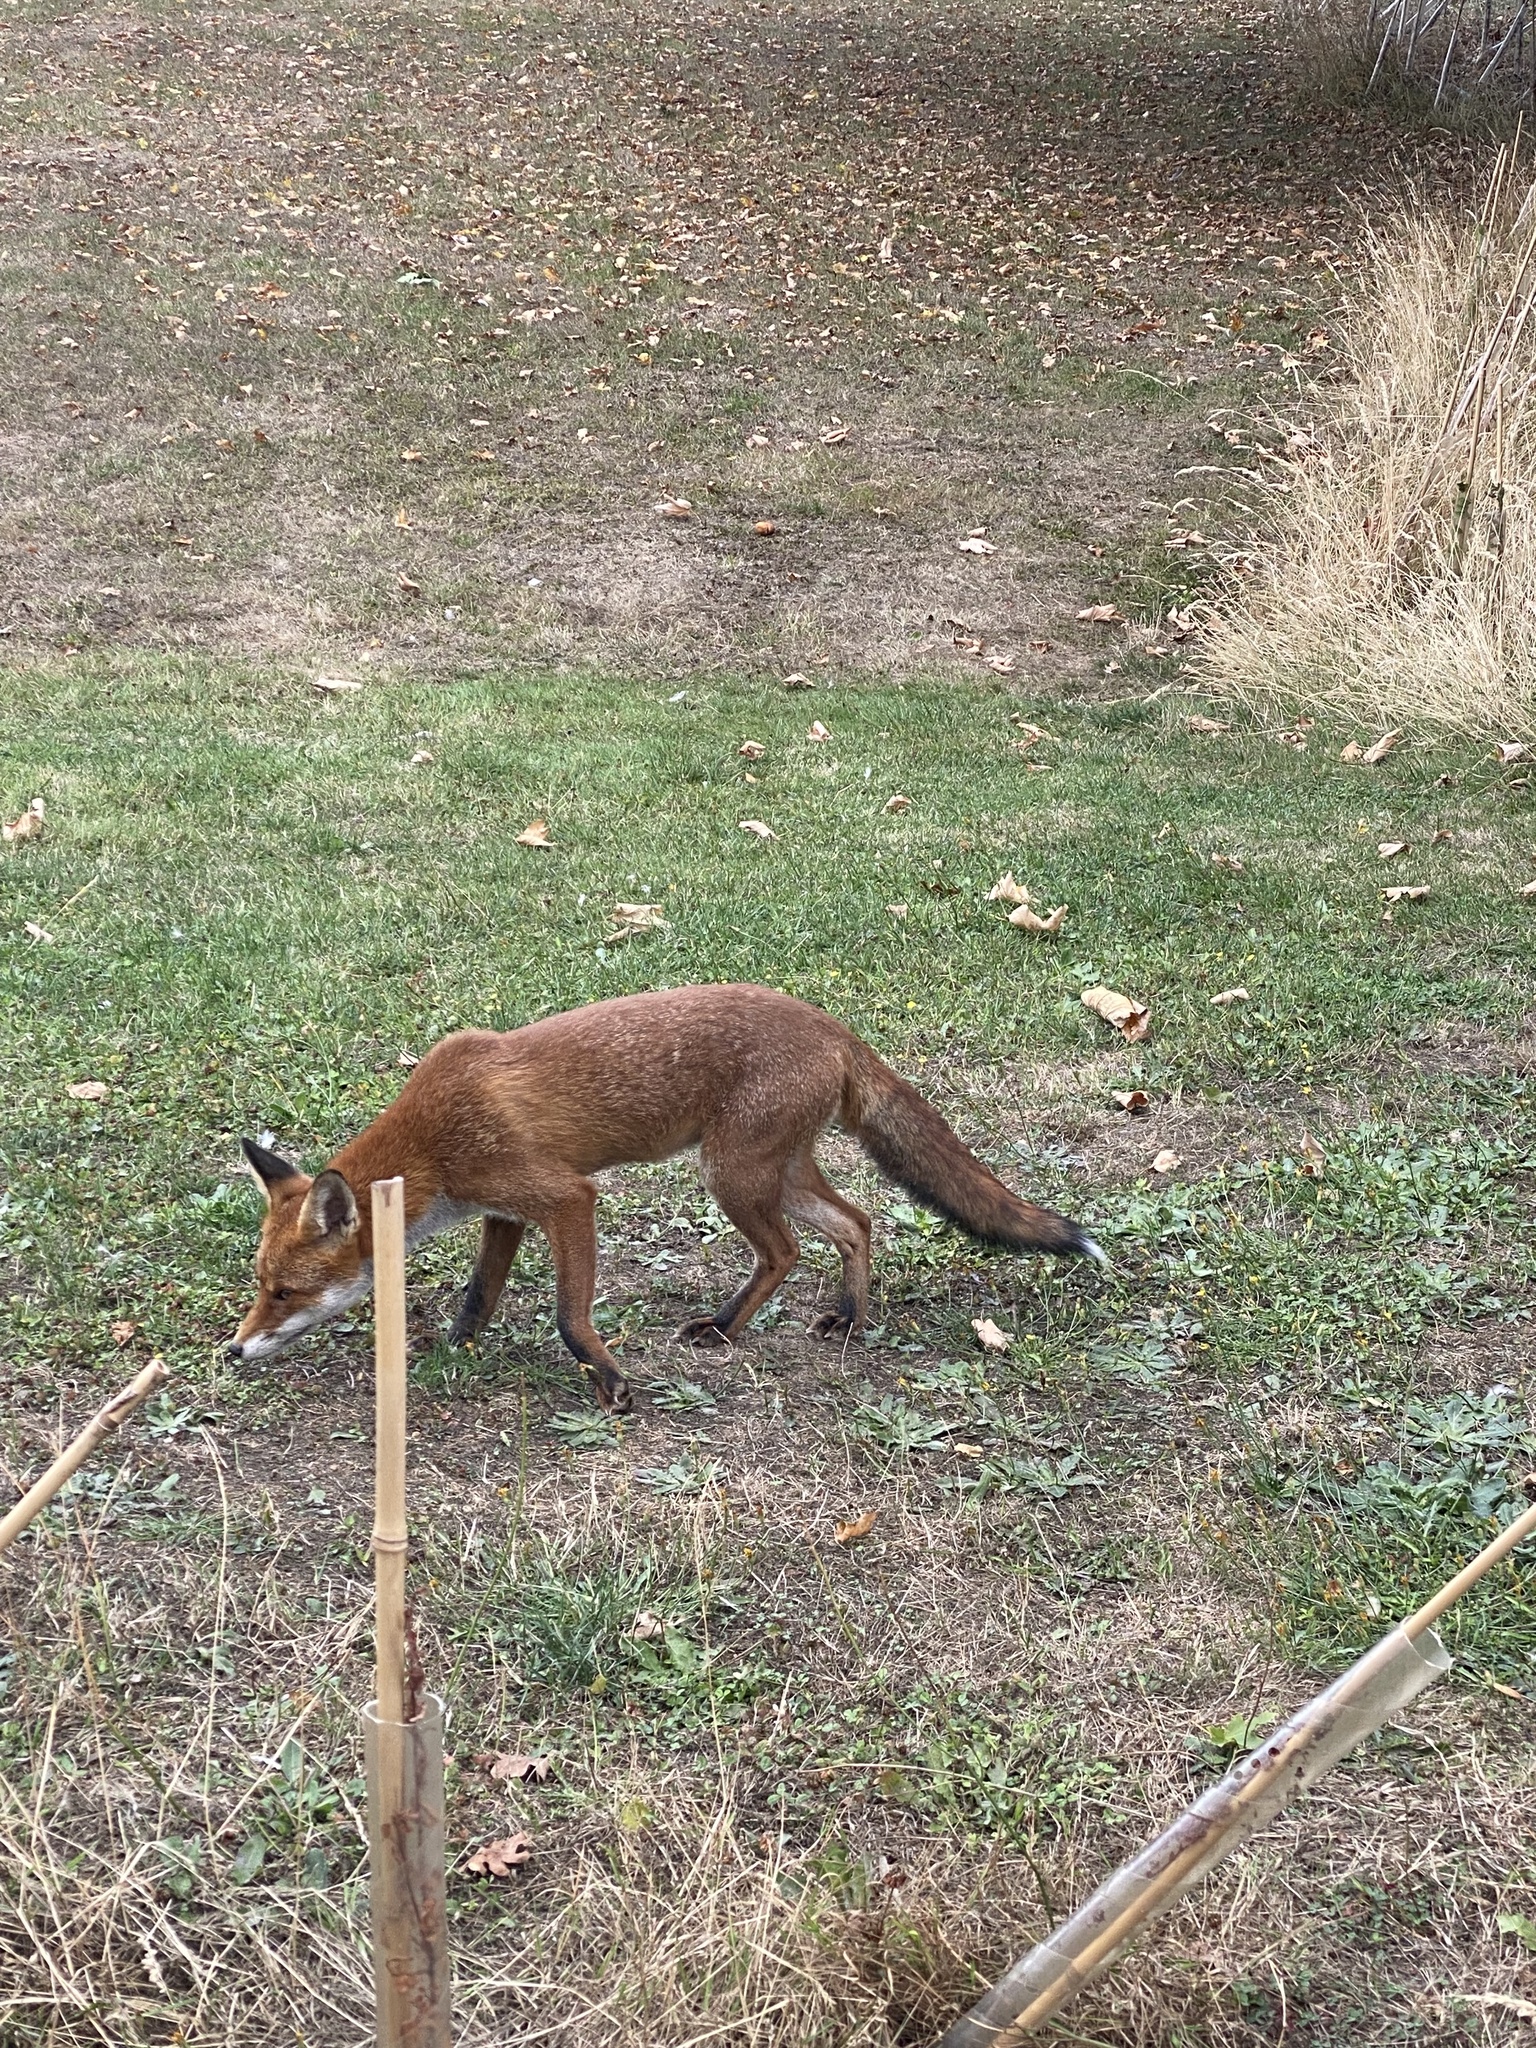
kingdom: Animalia
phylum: Chordata
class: Mammalia
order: Carnivora
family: Canidae
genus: Vulpes
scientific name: Vulpes vulpes
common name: Red fox
